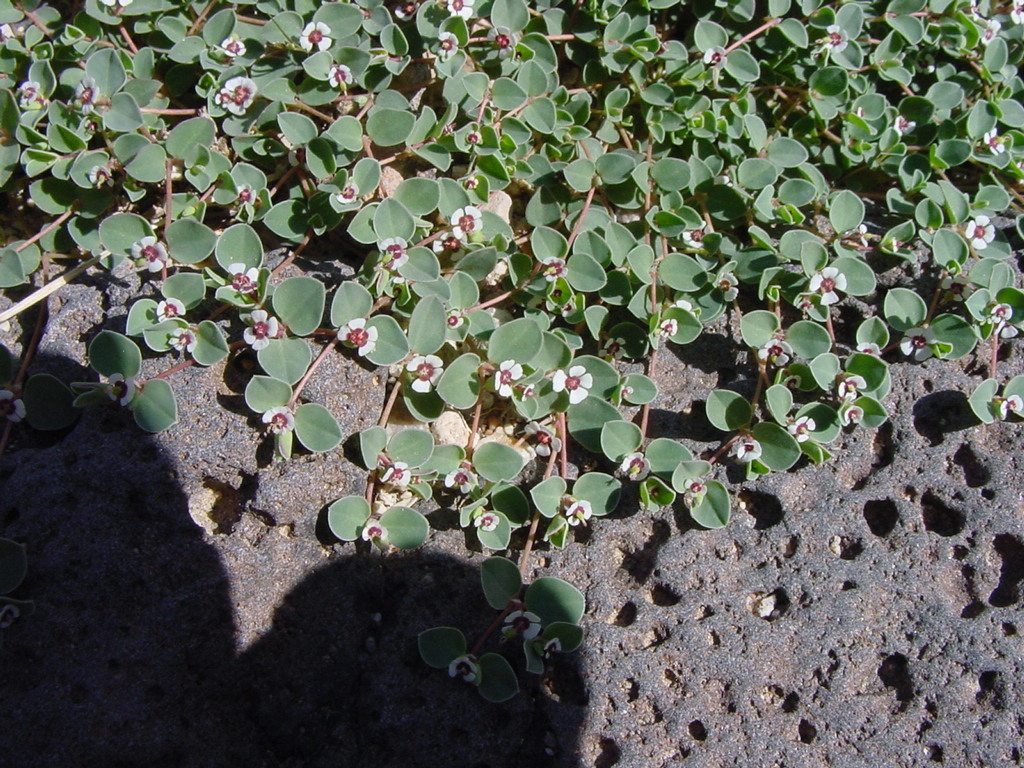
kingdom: Plantae
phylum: Tracheophyta
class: Magnoliopsida
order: Malpighiales
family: Euphorbiaceae
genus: Euphorbia
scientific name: Euphorbia albomarginata
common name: Whitemargin sandmat
